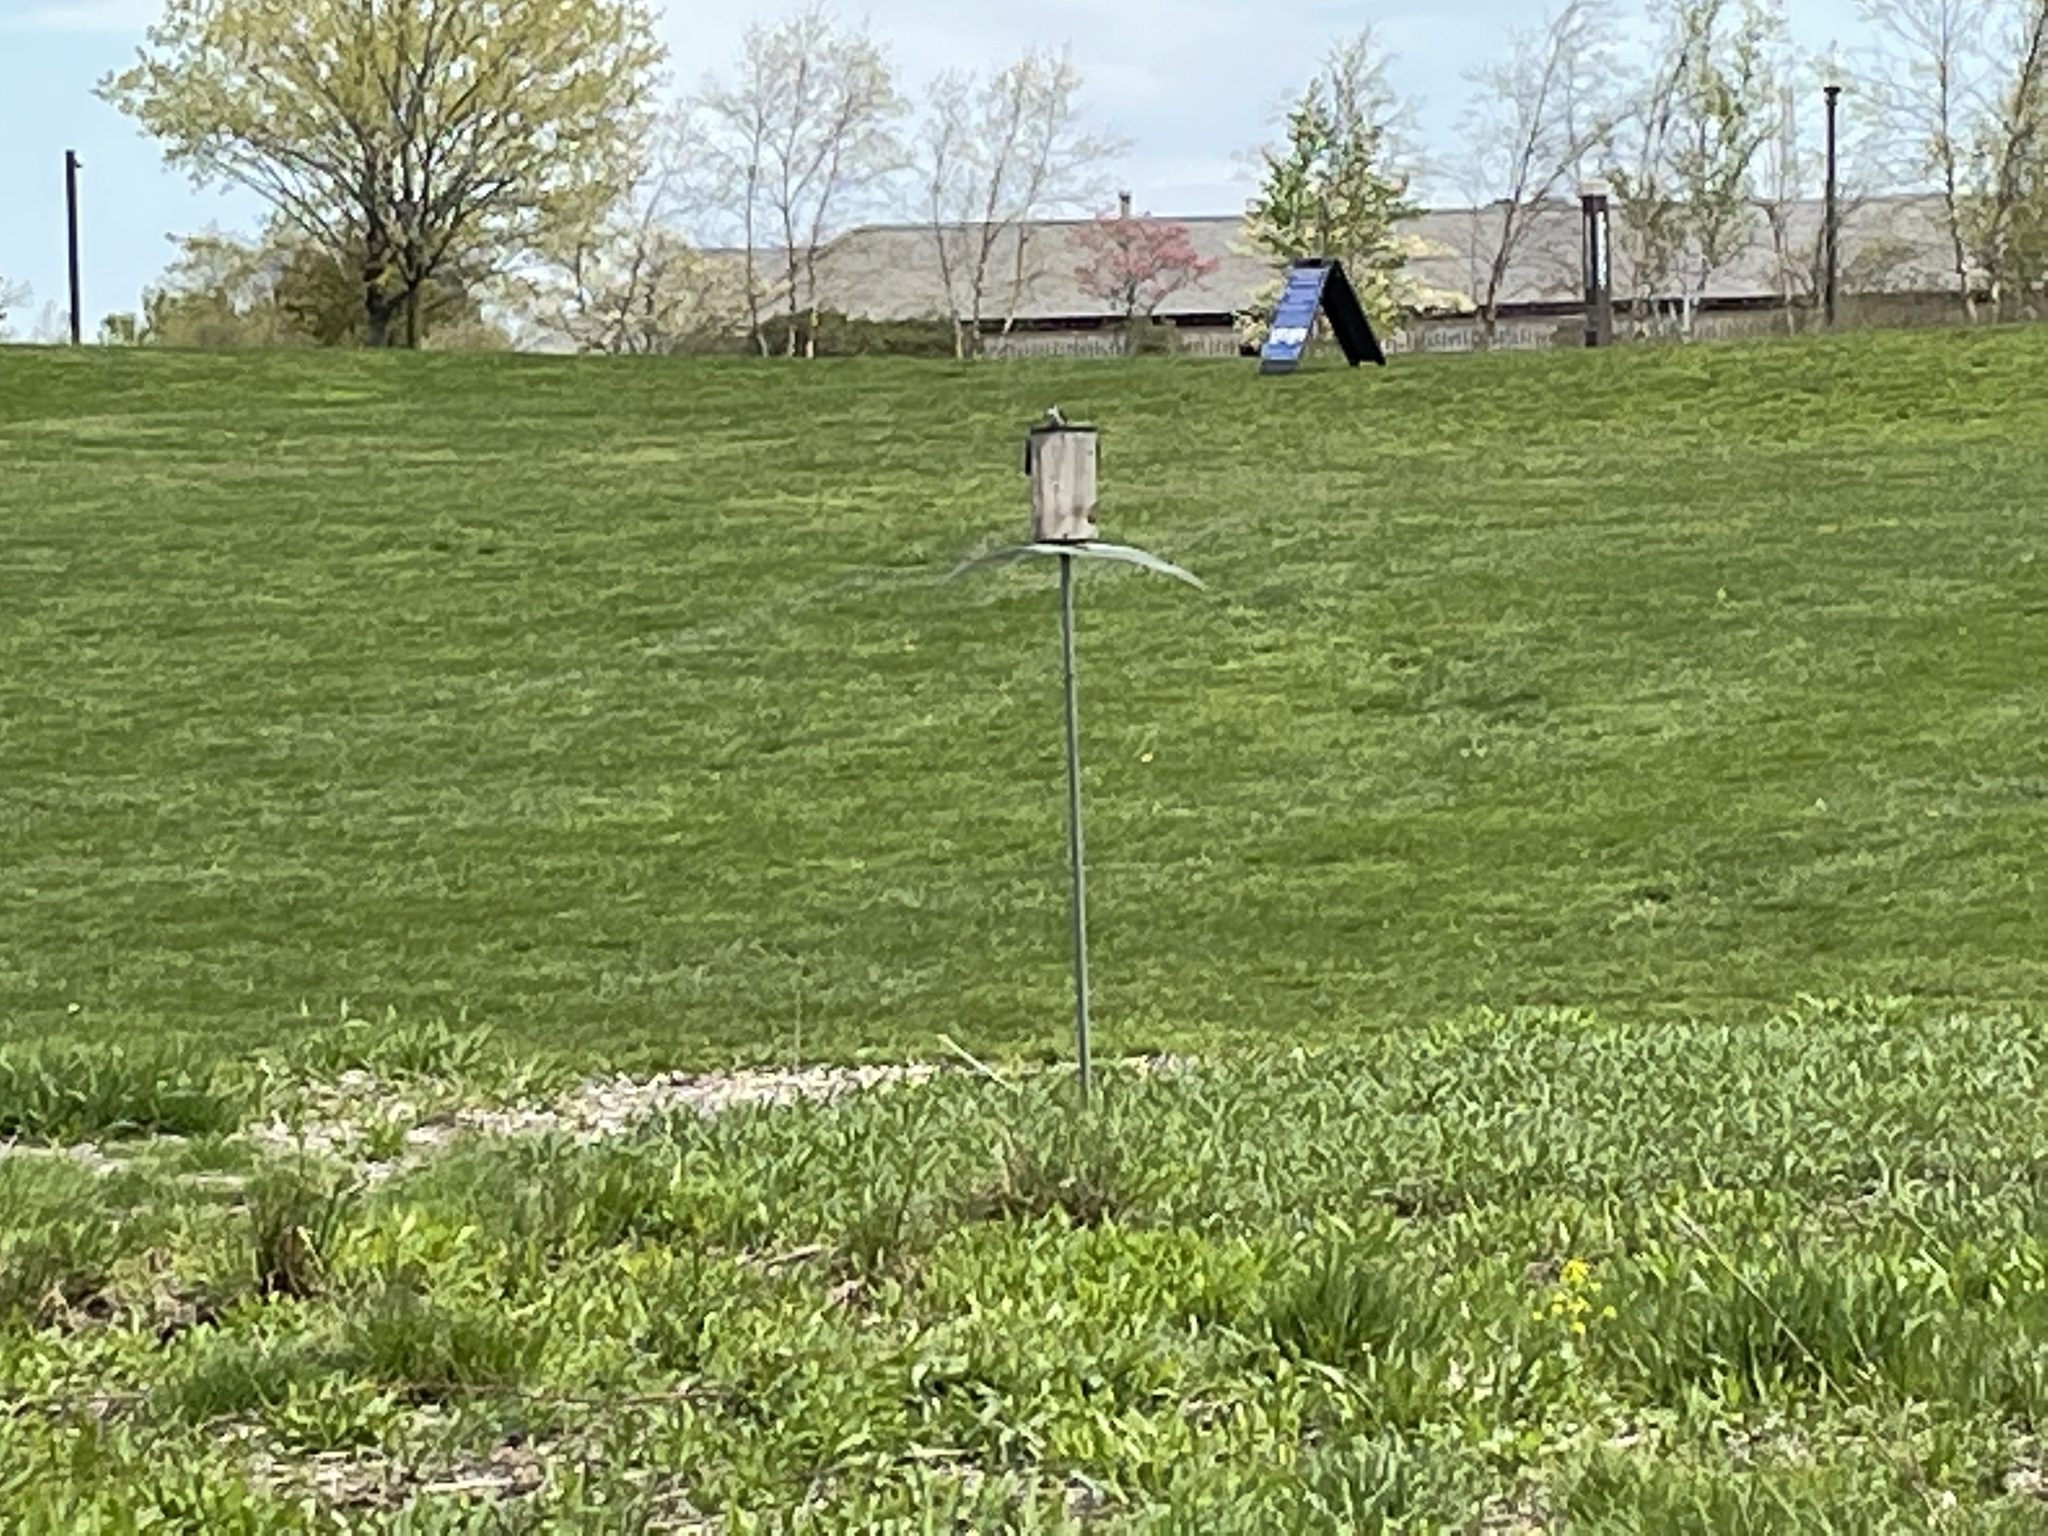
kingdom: Animalia
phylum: Chordata
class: Aves
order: Passeriformes
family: Hirundinidae
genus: Tachycineta
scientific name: Tachycineta bicolor
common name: Tree swallow
